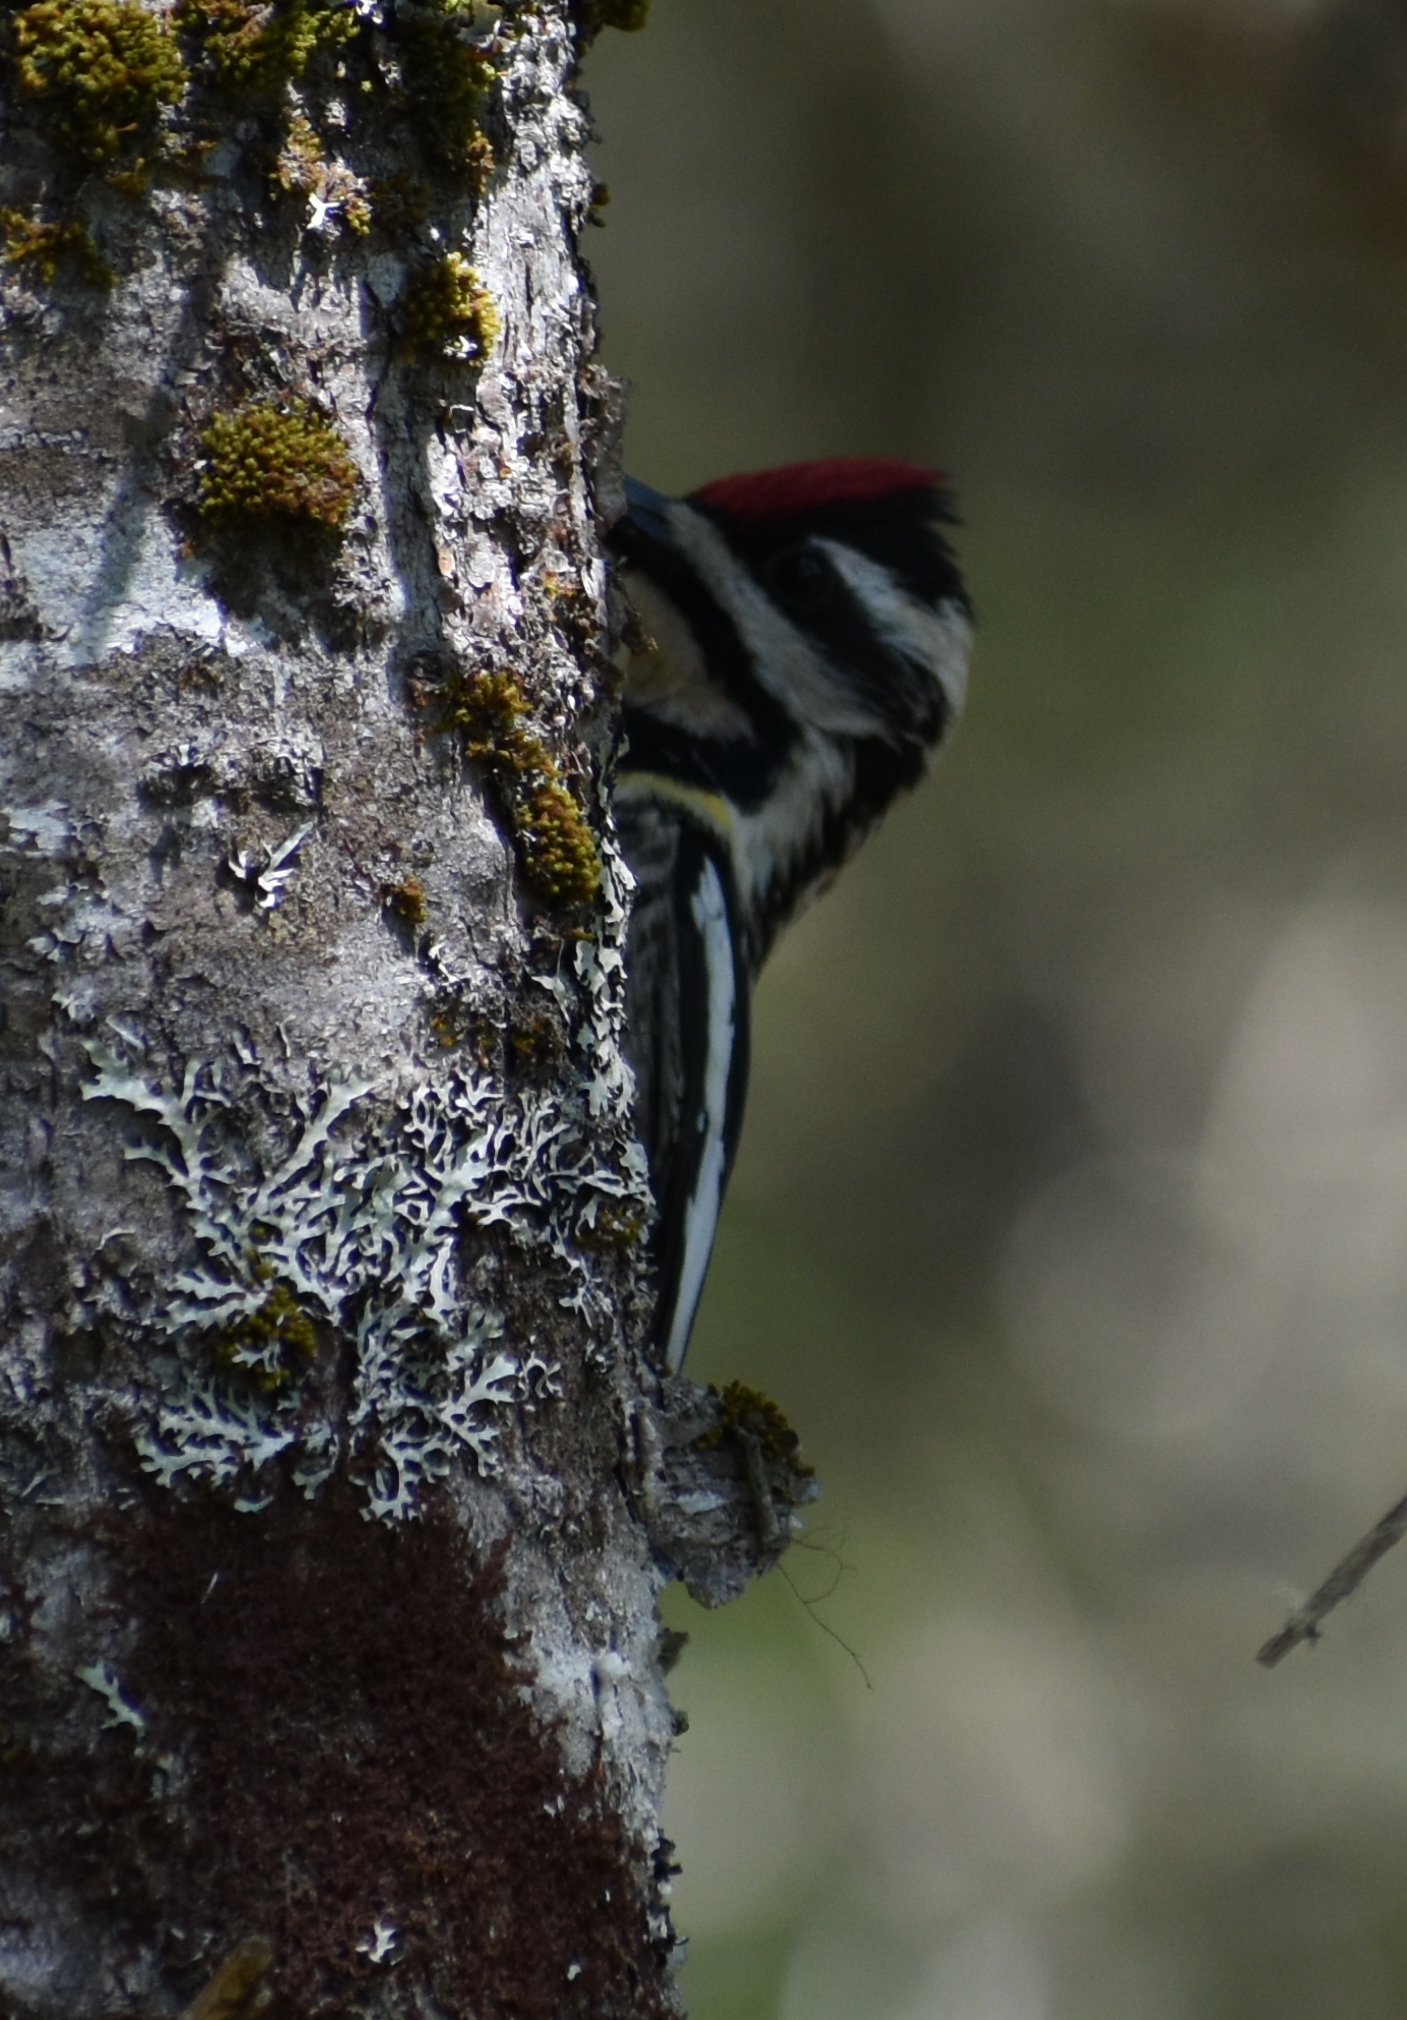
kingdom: Animalia
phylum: Chordata
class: Aves
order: Piciformes
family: Picidae
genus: Sphyrapicus
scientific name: Sphyrapicus varius
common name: Yellow-bellied sapsucker
